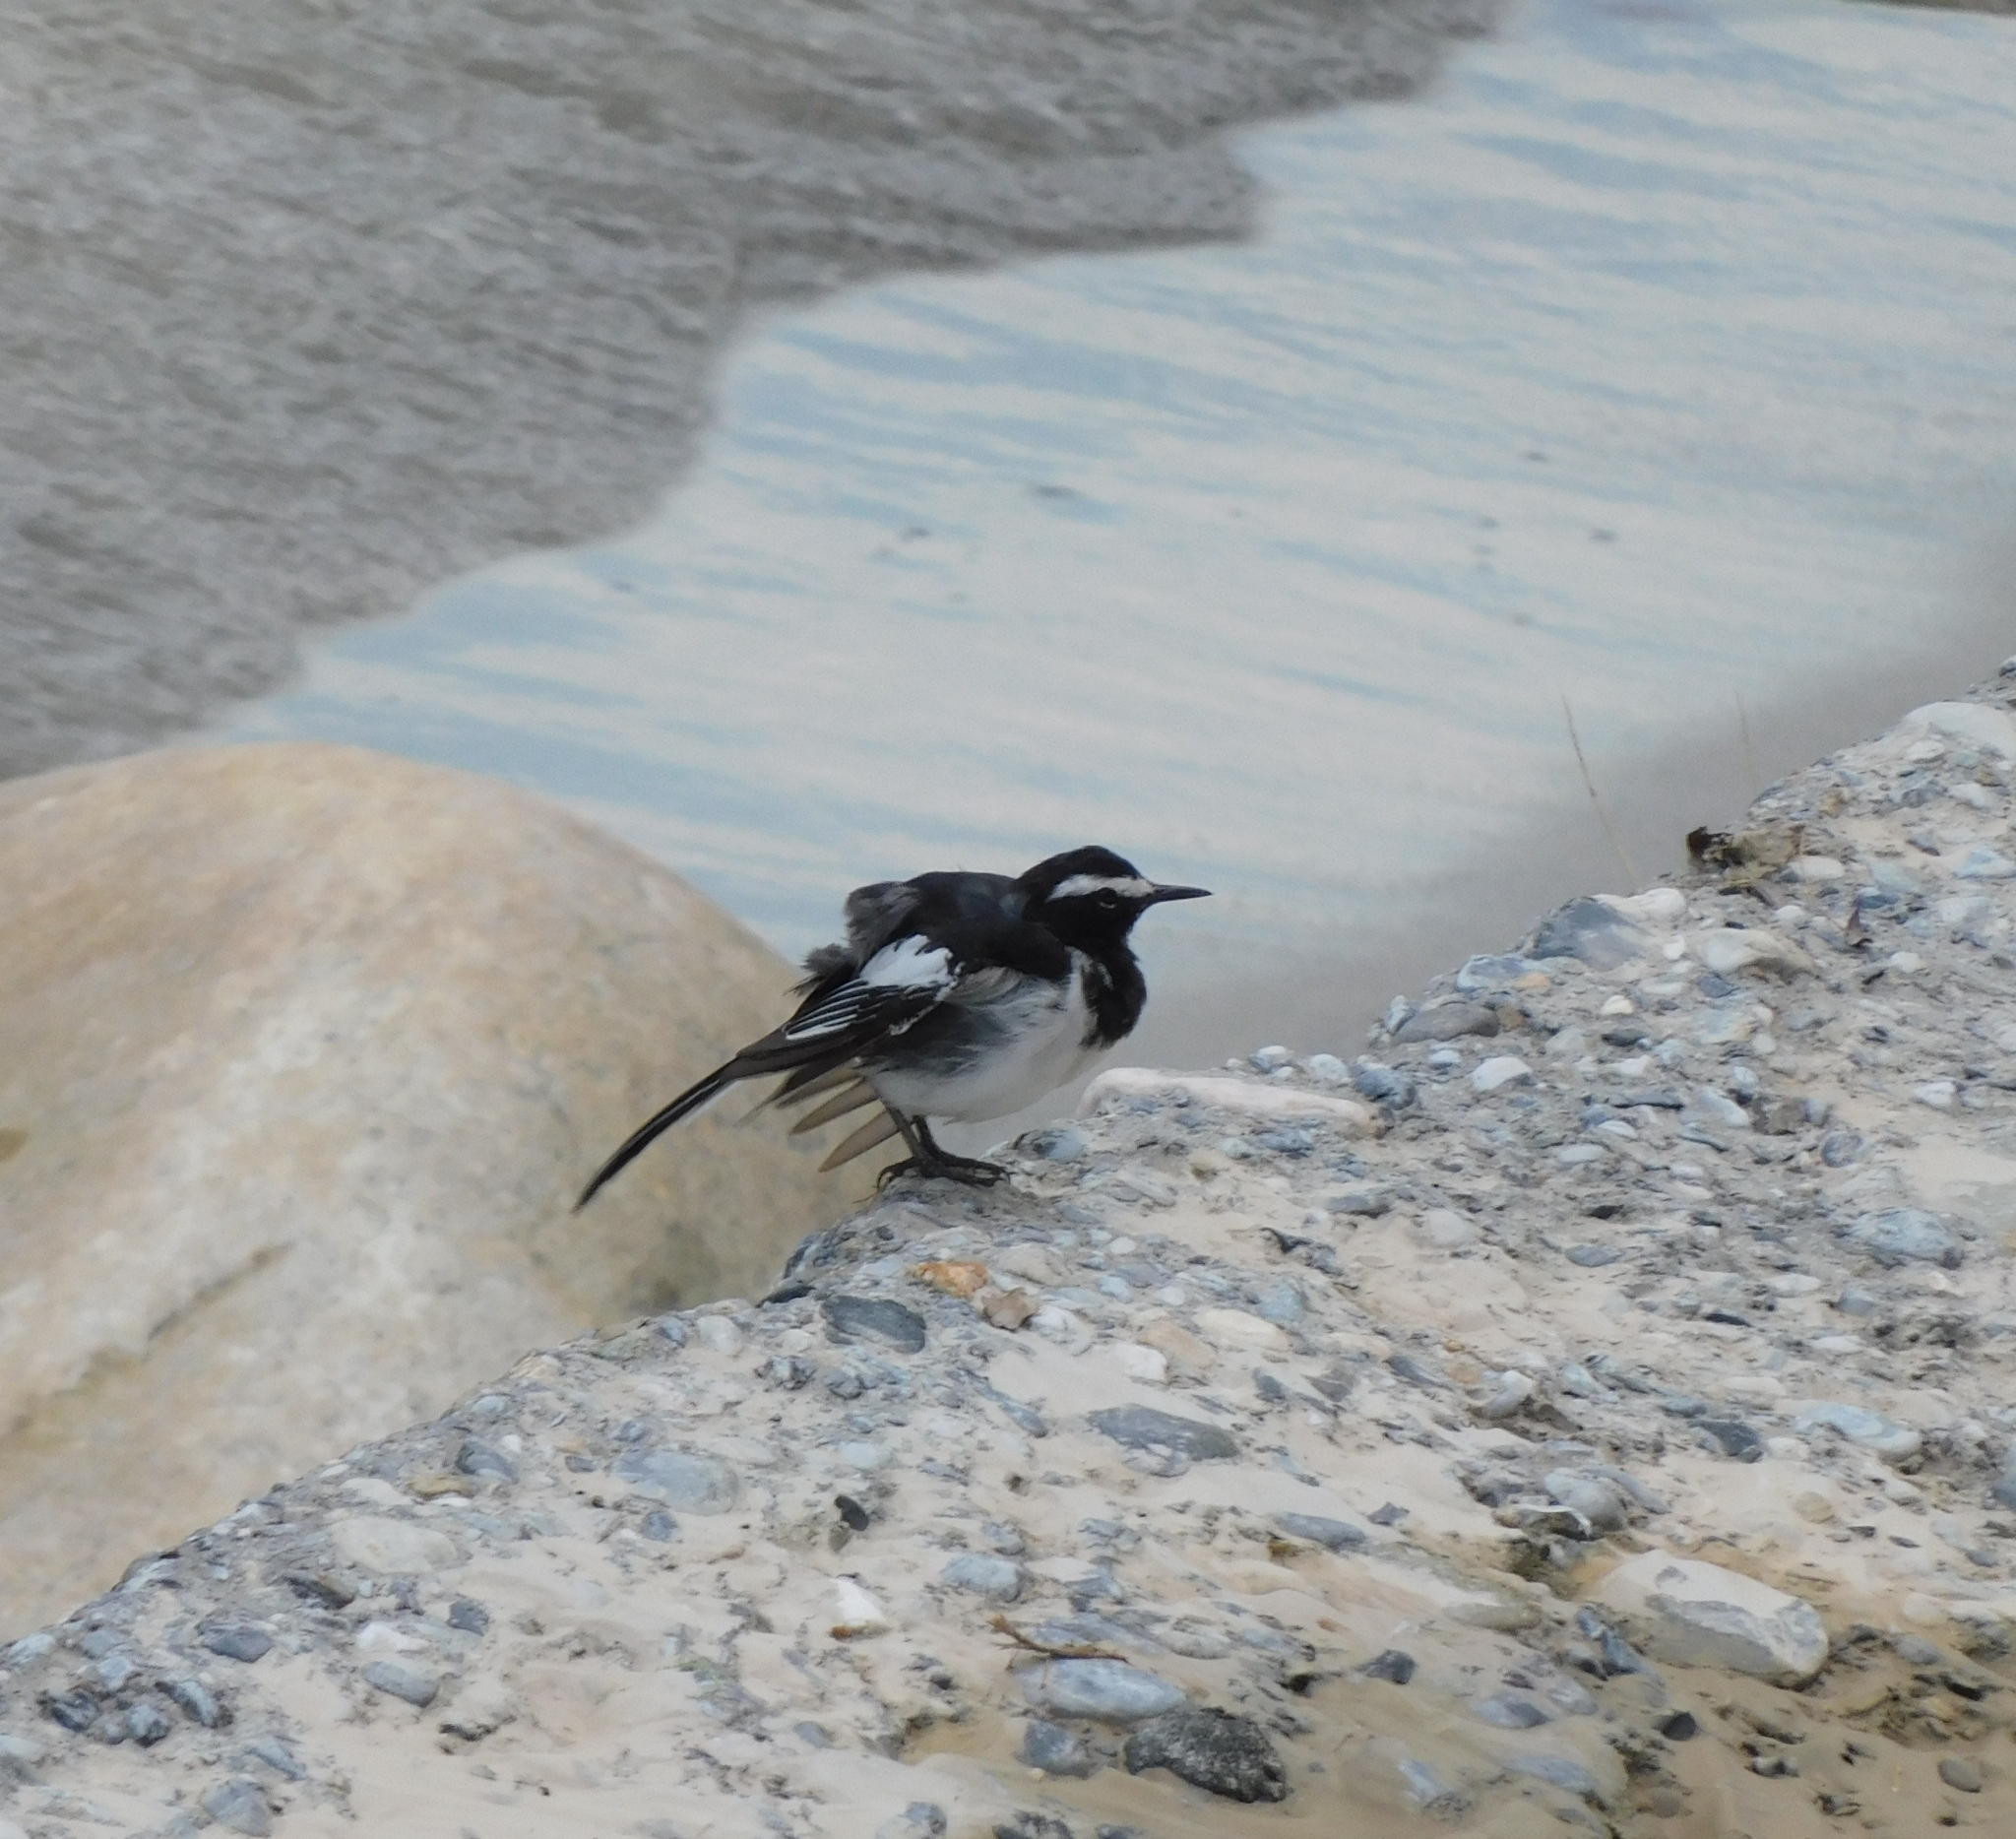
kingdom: Animalia
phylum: Chordata
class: Aves
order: Passeriformes
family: Motacillidae
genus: Motacilla
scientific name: Motacilla maderaspatensis
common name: White-browed wagtail
